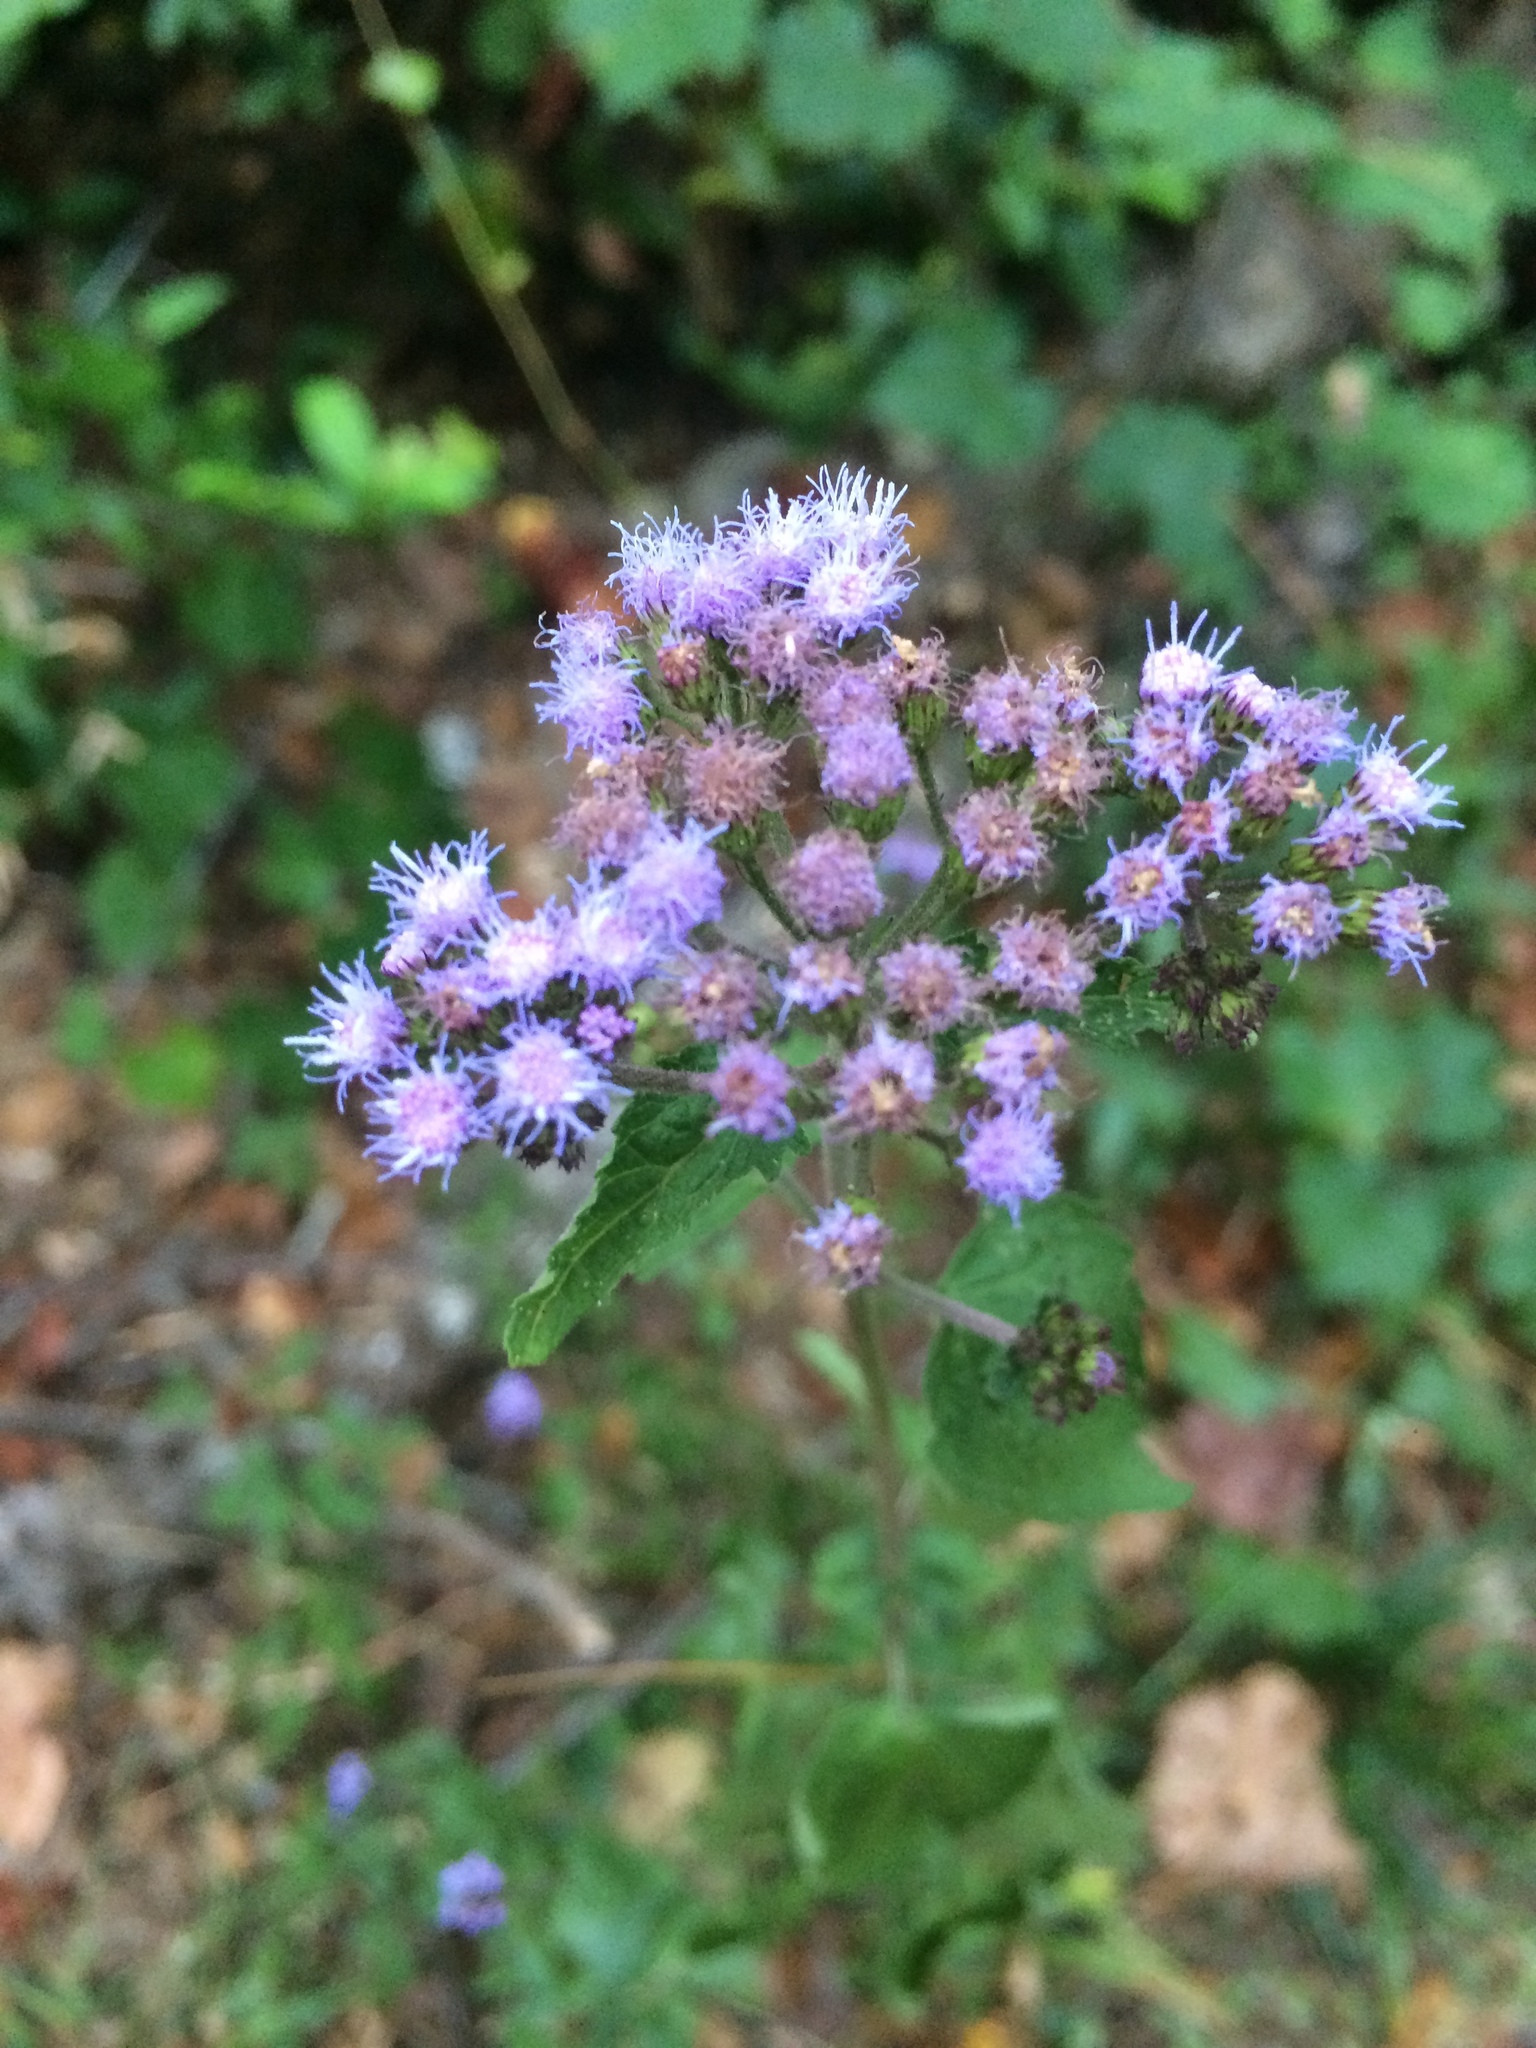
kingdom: Plantae
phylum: Tracheophyta
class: Magnoliopsida
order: Asterales
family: Asteraceae
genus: Conoclinium
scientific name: Conoclinium coelestinum
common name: Blue mistflower
